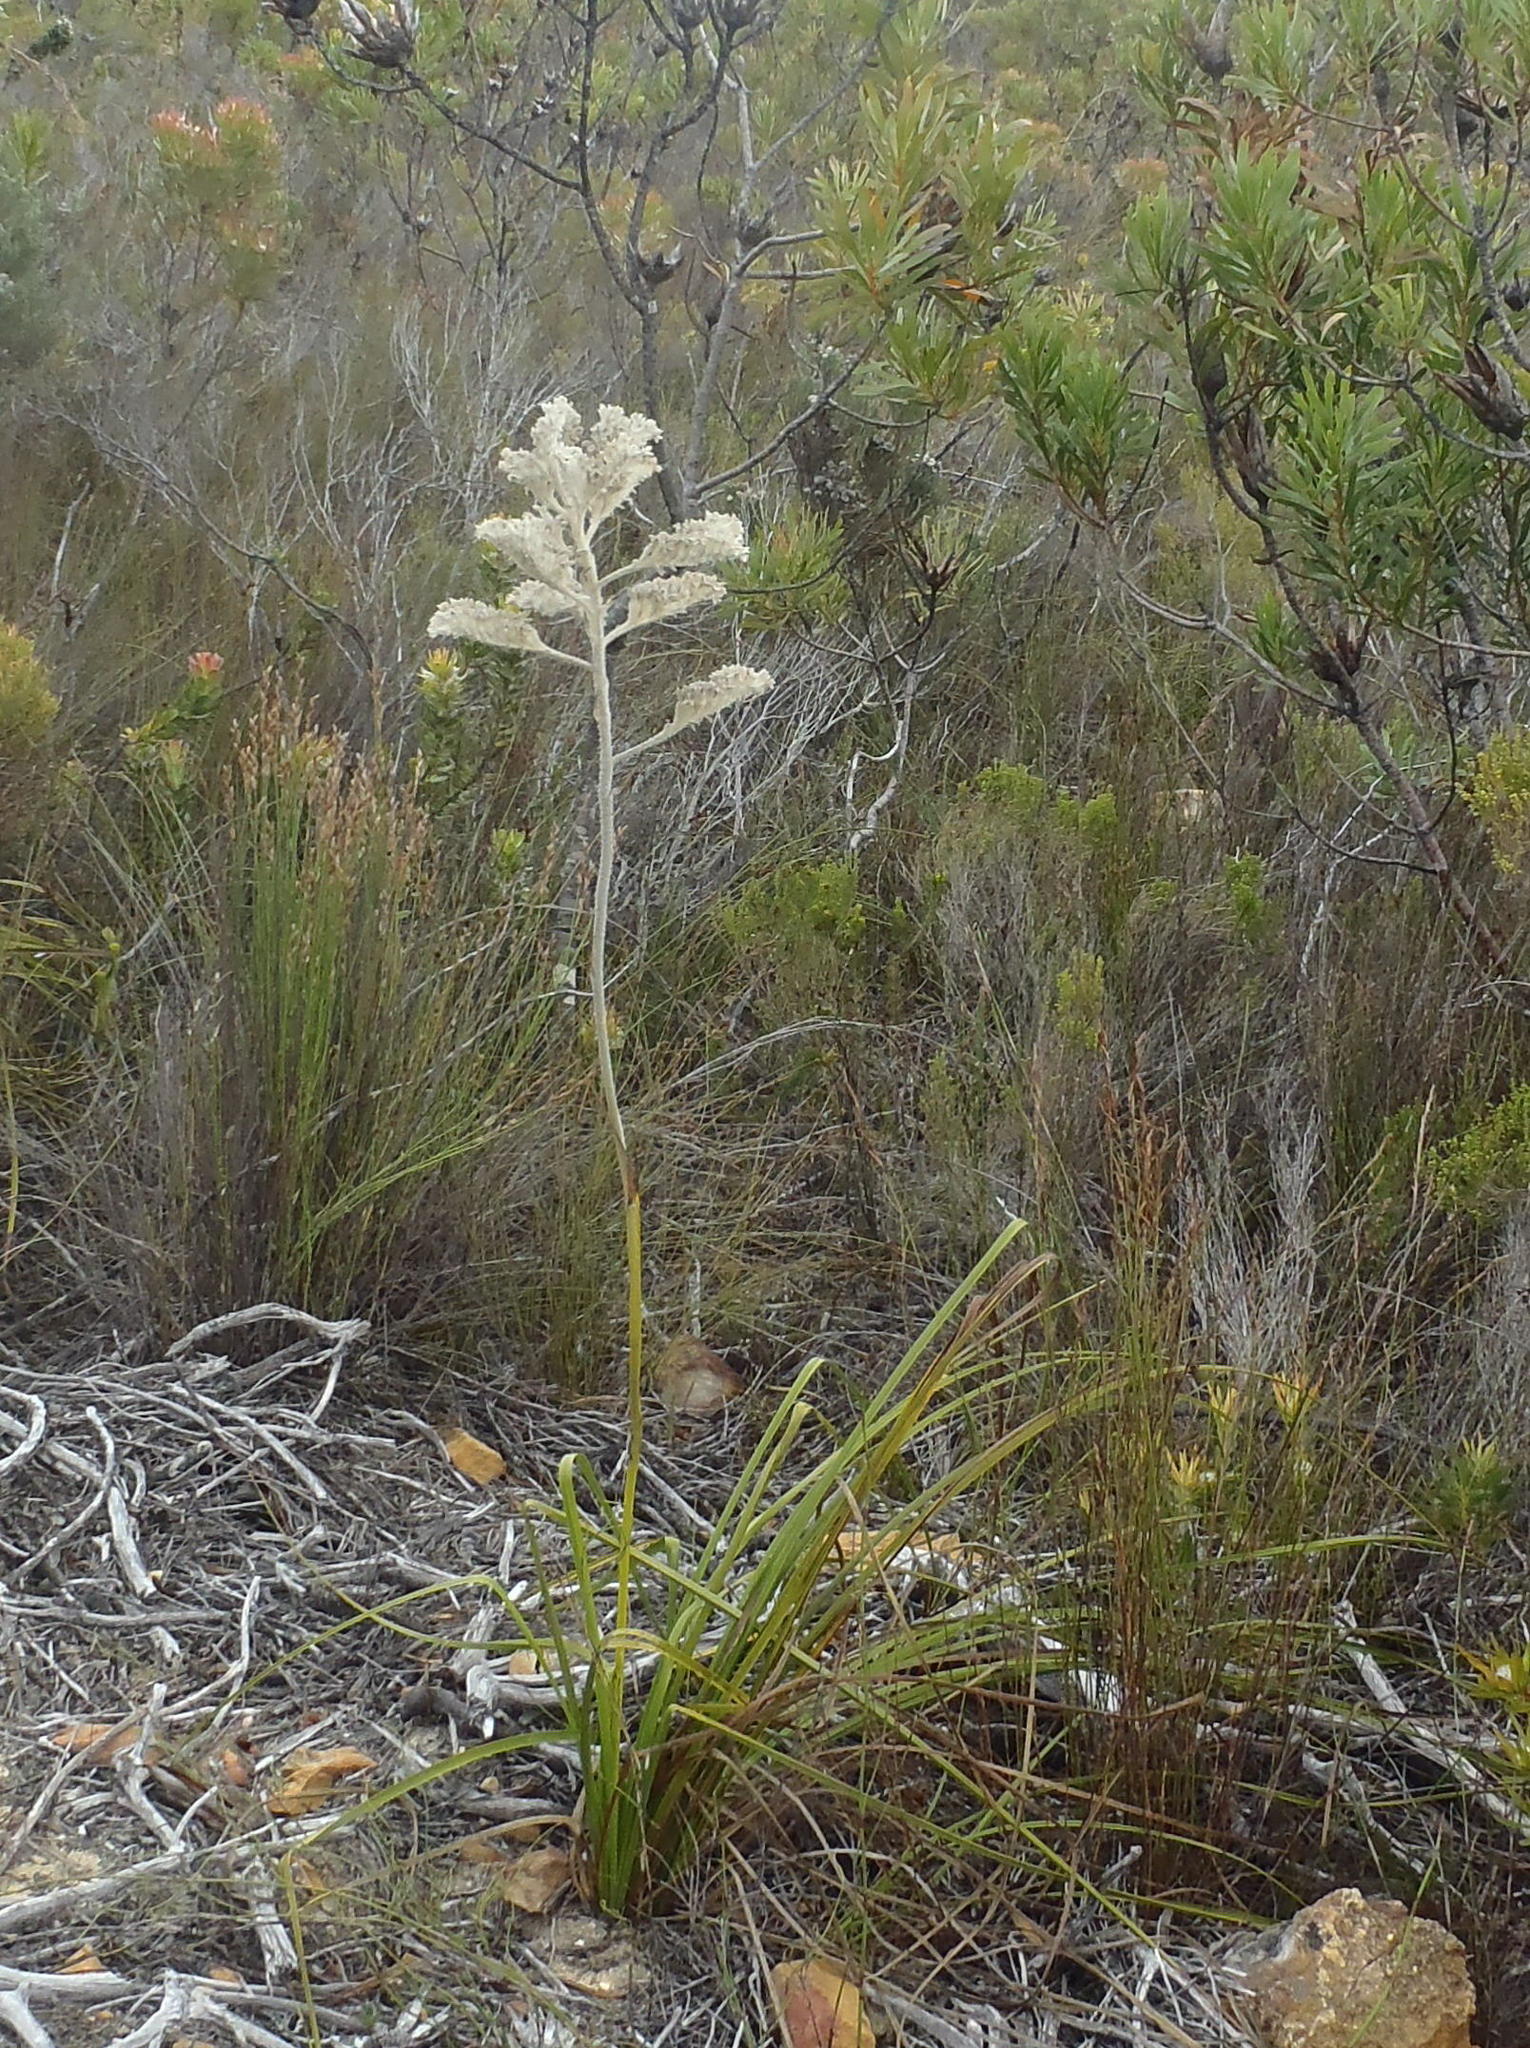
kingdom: Plantae
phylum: Tracheophyta
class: Liliopsida
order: Asparagales
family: Lanariaceae
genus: Lanaria
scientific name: Lanaria lanata
